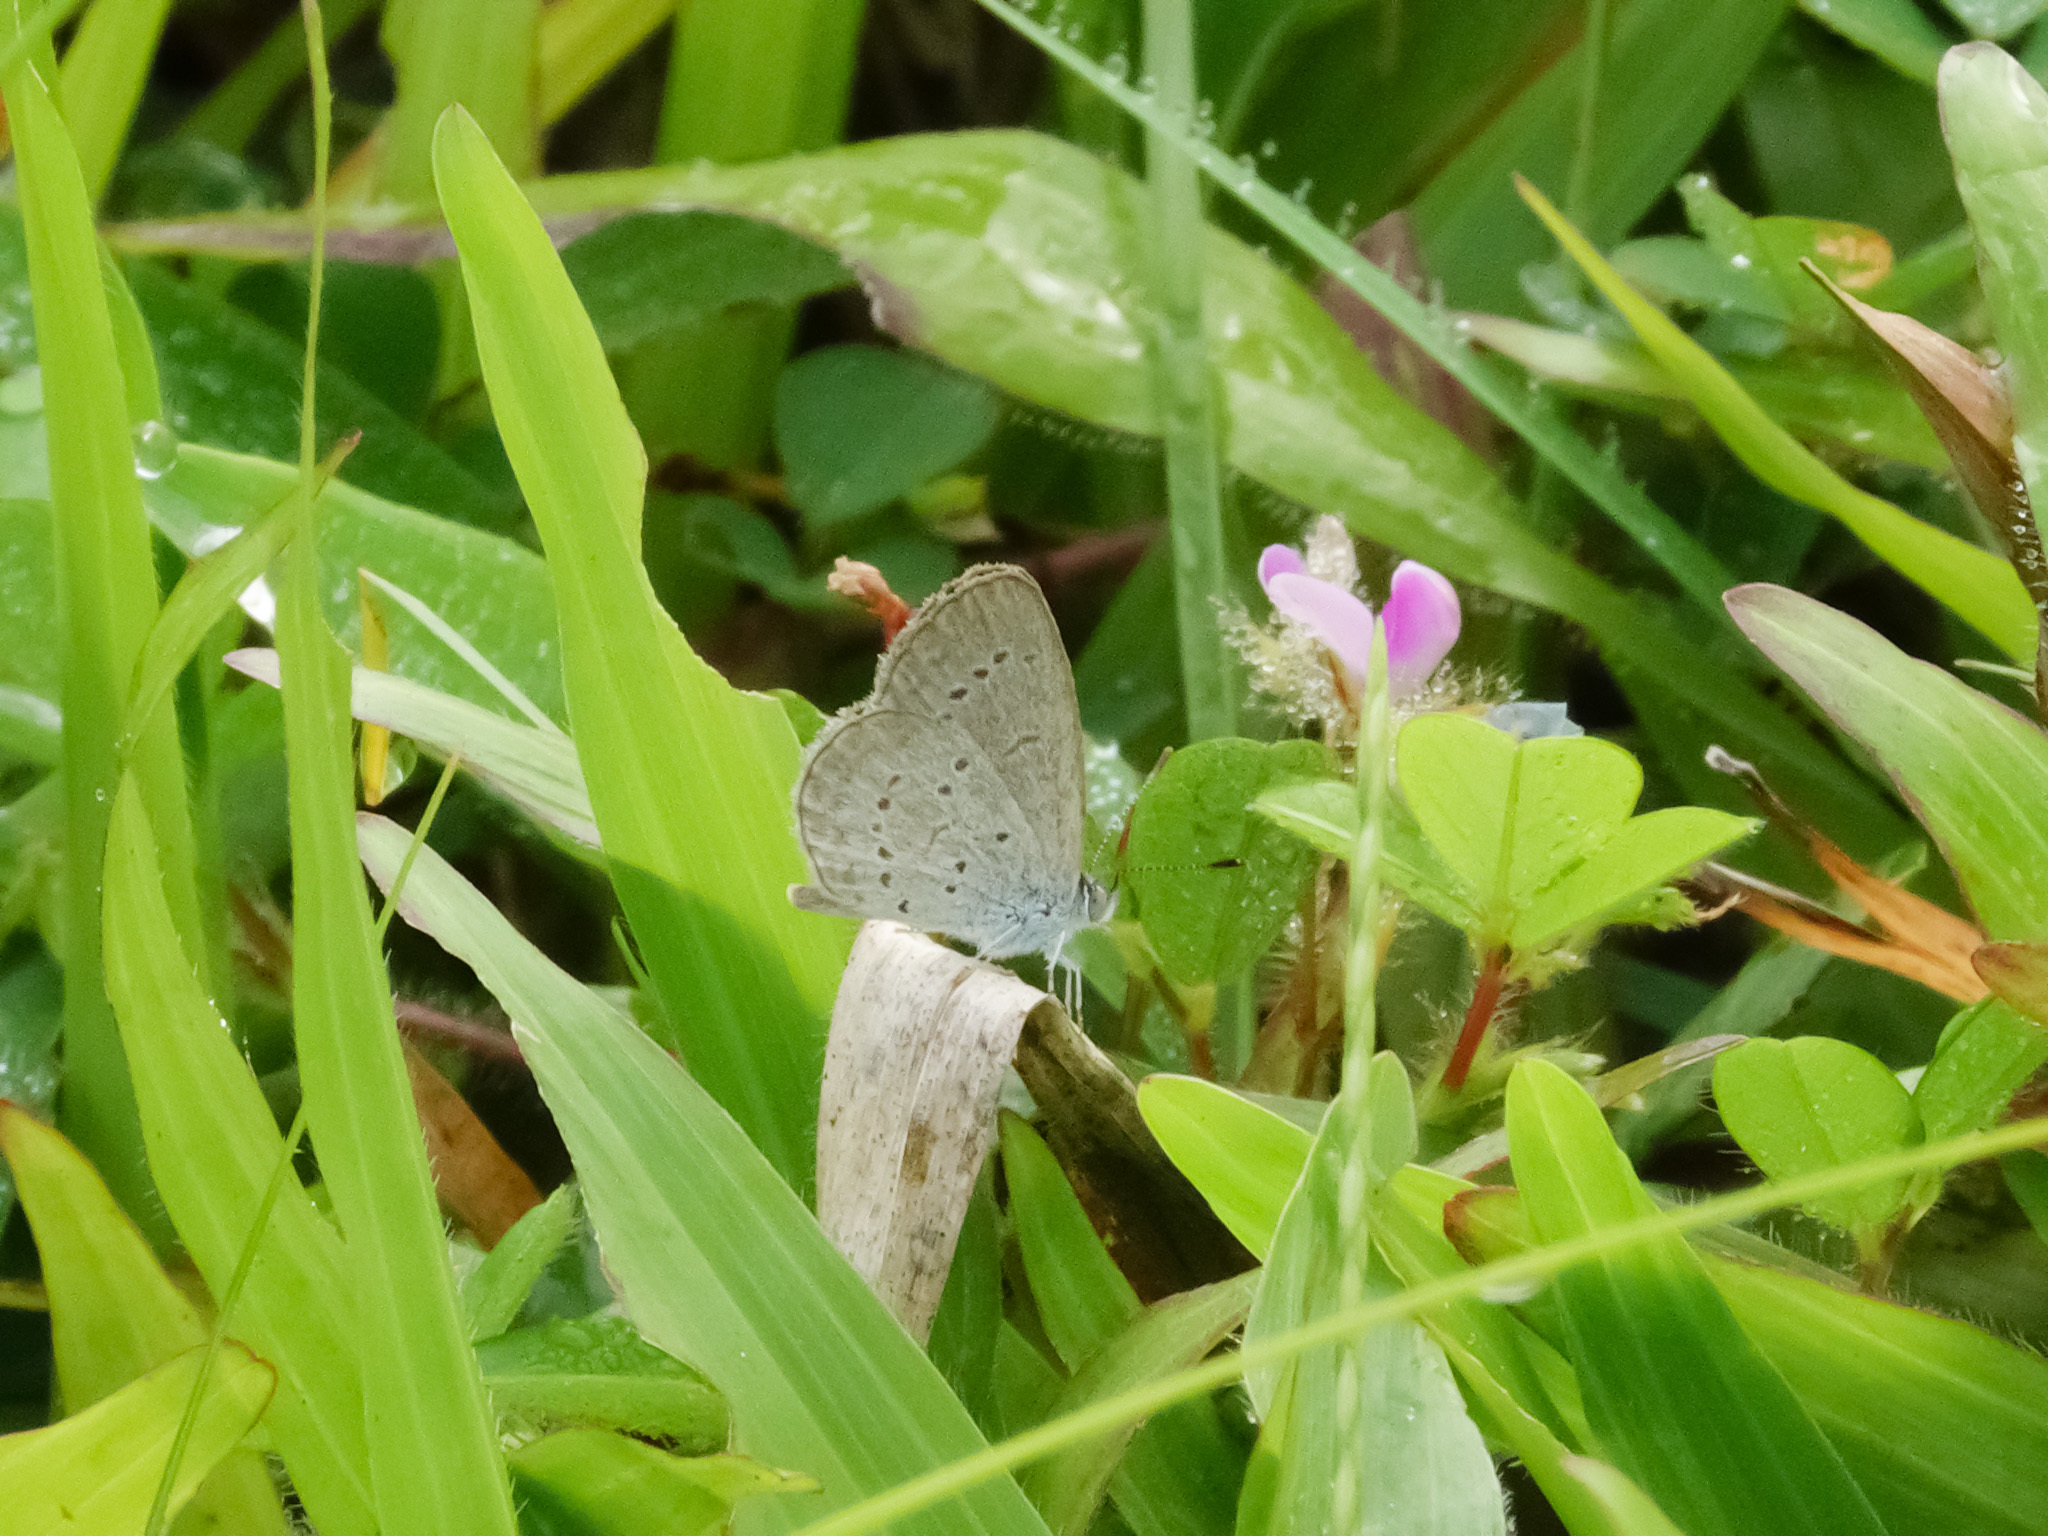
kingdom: Animalia
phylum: Arthropoda
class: Insecta
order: Lepidoptera
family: Lycaenidae
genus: Zizina
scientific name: Zizina otis
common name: Lesser grass blue
